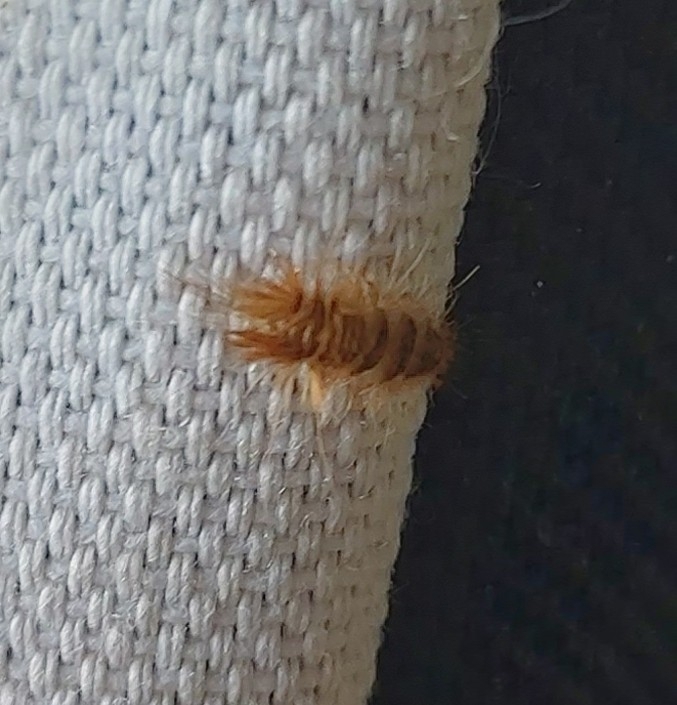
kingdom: Animalia
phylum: Arthropoda
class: Insecta
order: Coleoptera
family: Dermestidae
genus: Ctesias
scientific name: Ctesias serra
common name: Cobweb beetle
